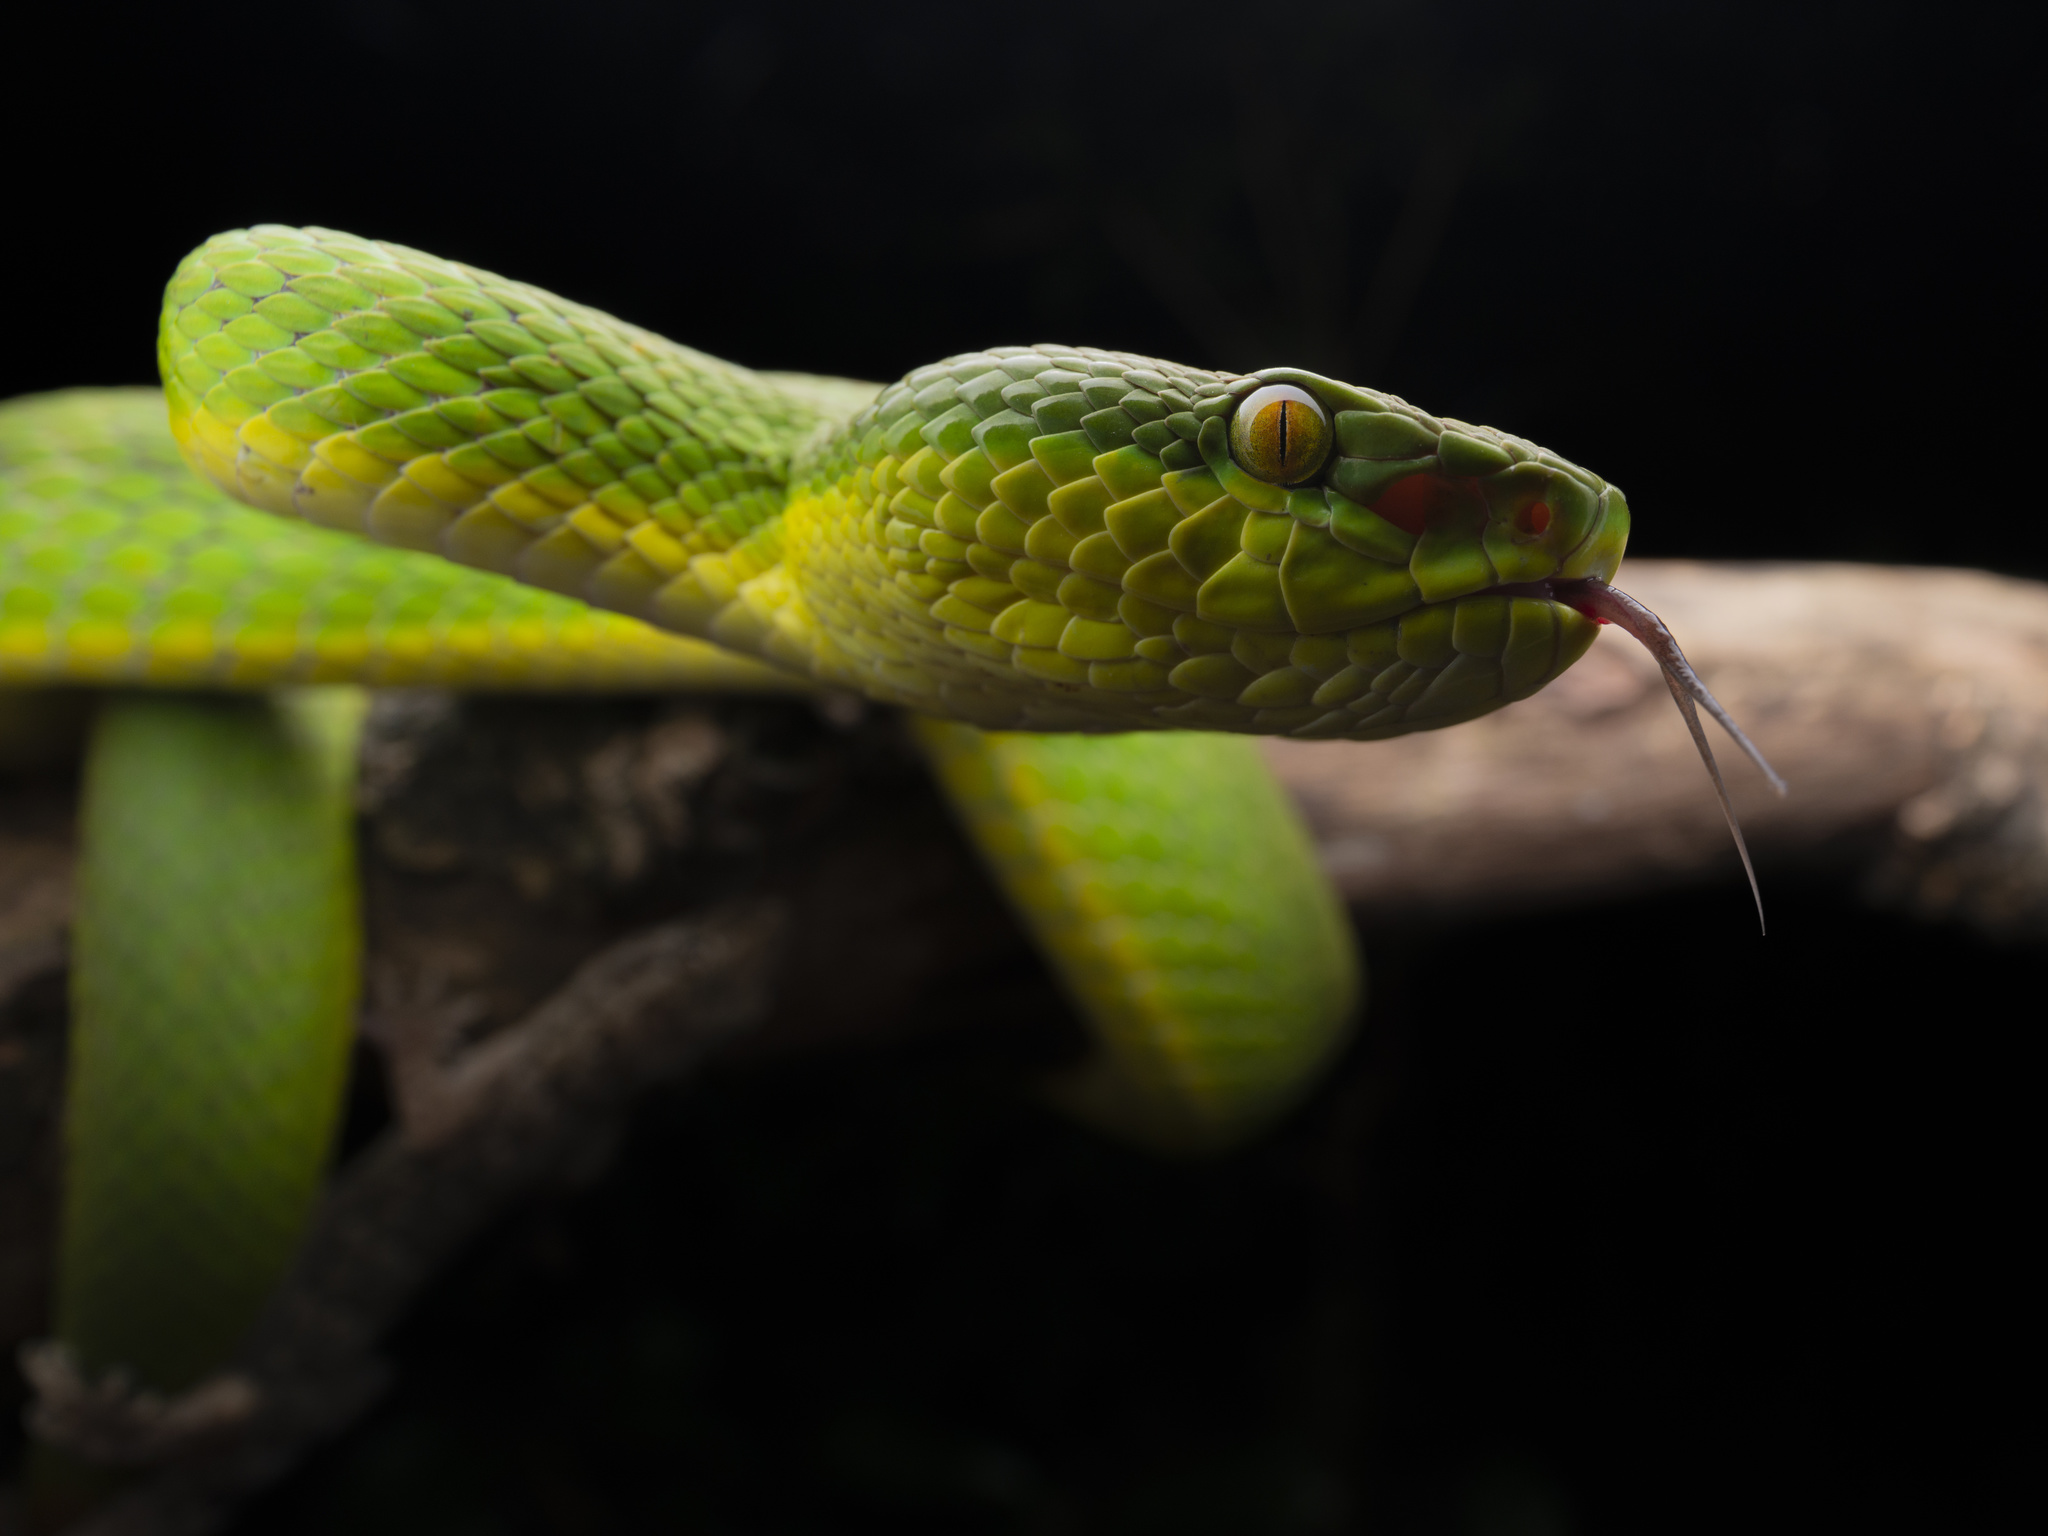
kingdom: Animalia
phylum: Chordata
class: Squamata
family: Viperidae
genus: Trimeresurus
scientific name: Trimeresurus albolabris
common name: White-lipped pitviper
